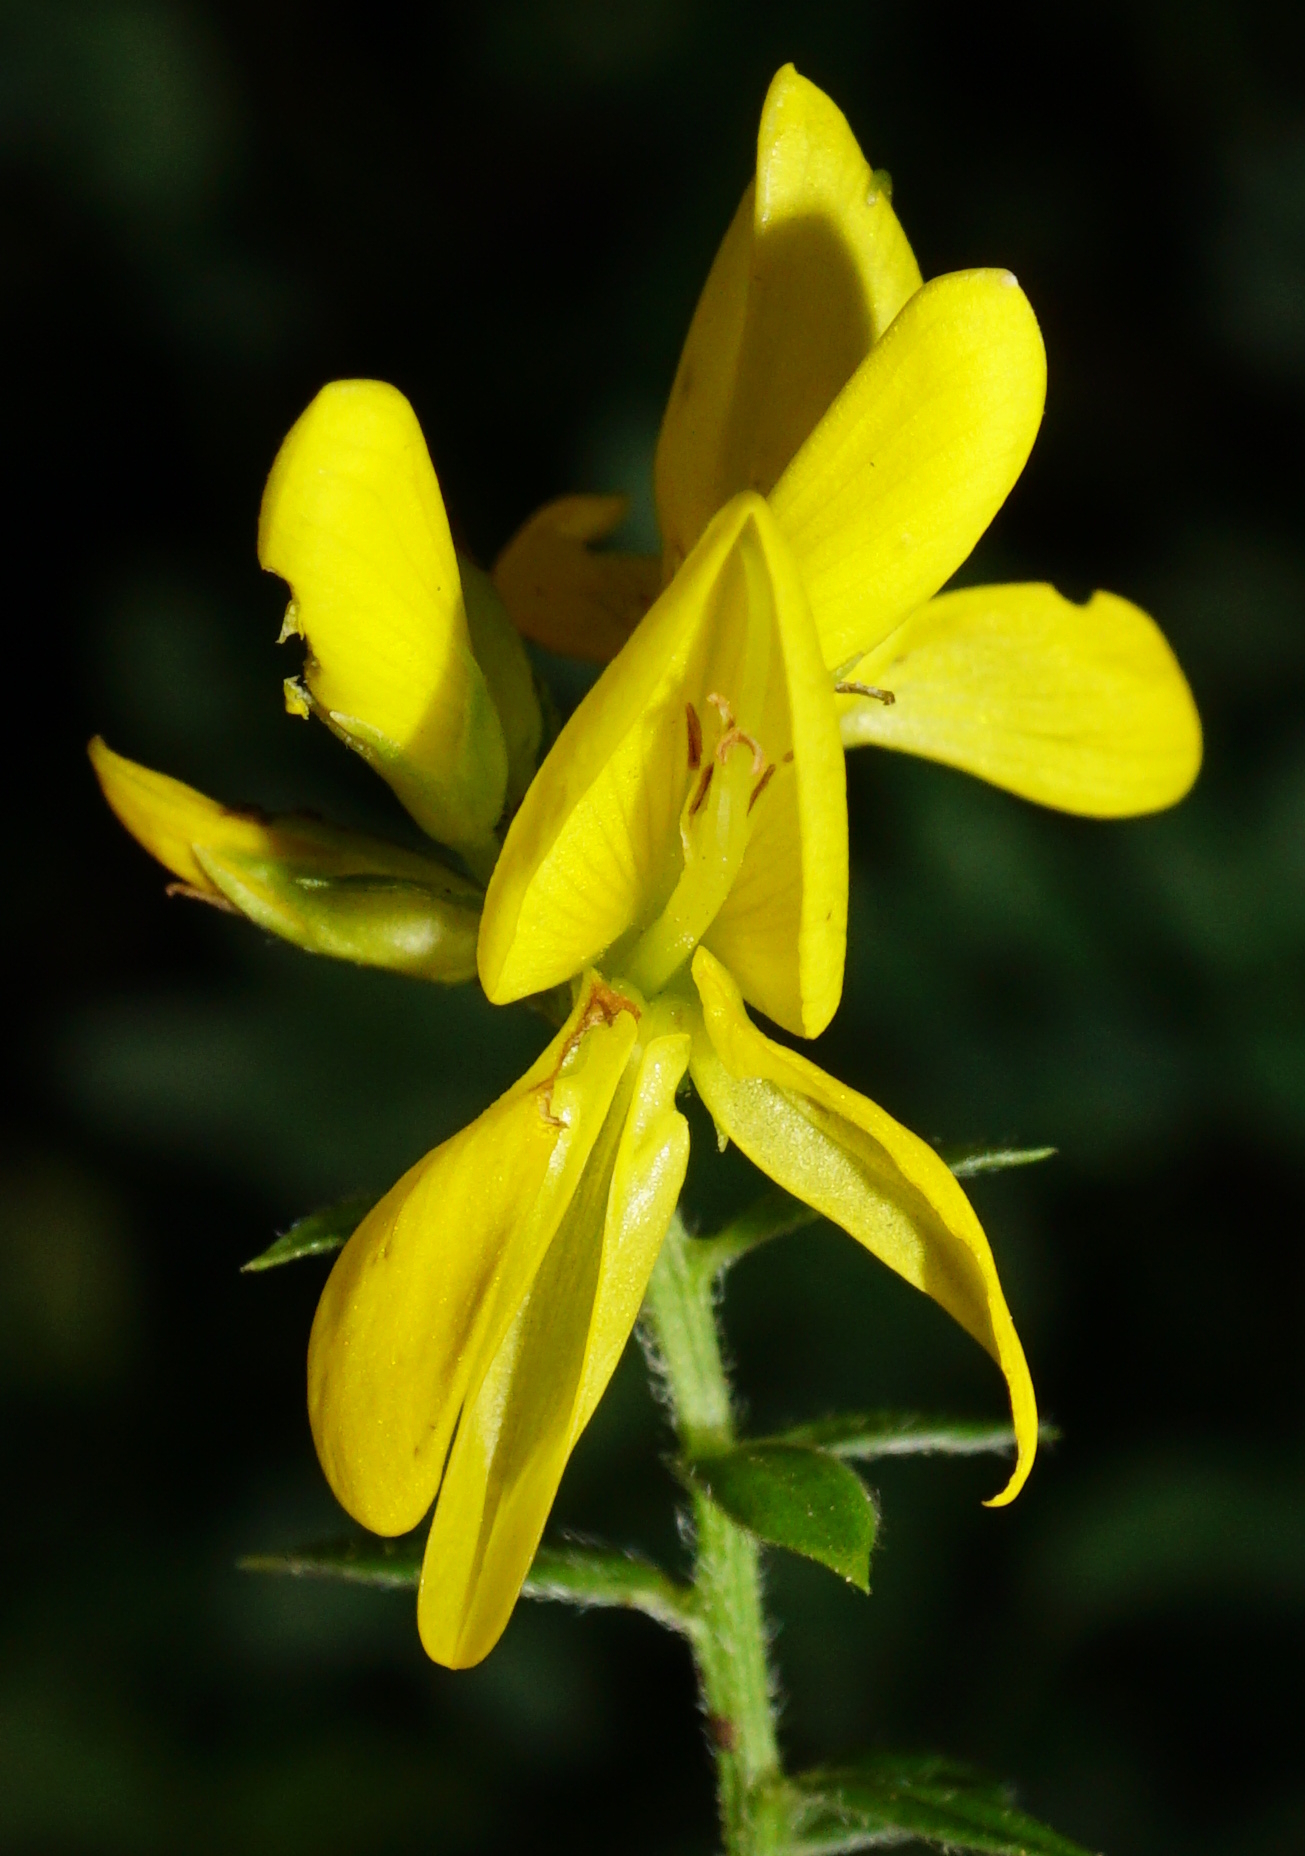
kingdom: Plantae
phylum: Tracheophyta
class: Magnoliopsida
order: Fabales
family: Fabaceae
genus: Genista
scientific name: Genista tinctoria
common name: Dyer's greenweed
